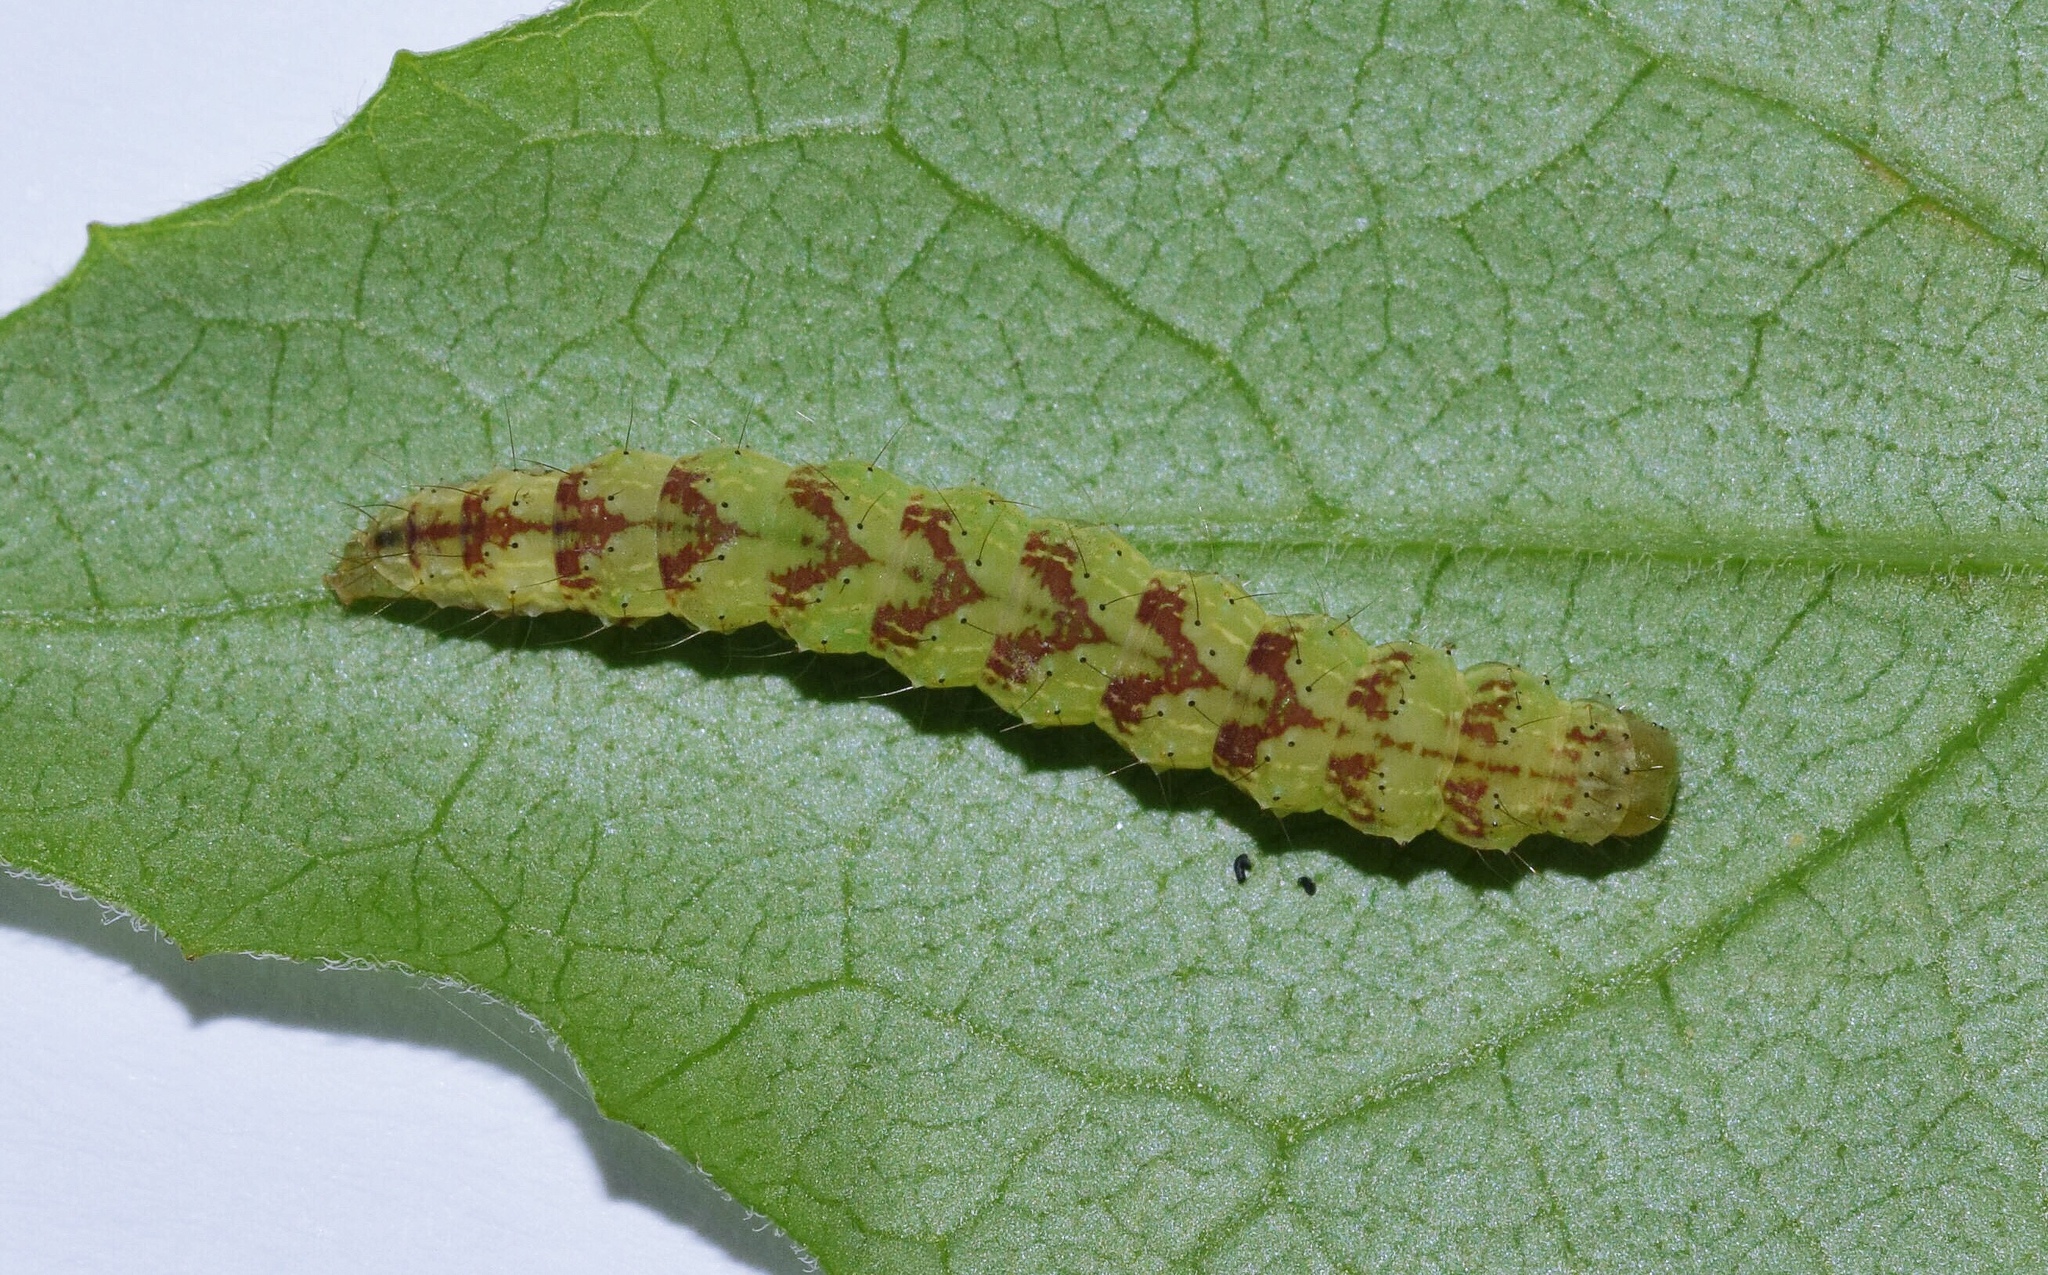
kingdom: Animalia
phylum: Arthropoda
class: Insecta
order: Lepidoptera
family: Erebidae
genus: Hypena
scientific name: Hypena conscitalis
